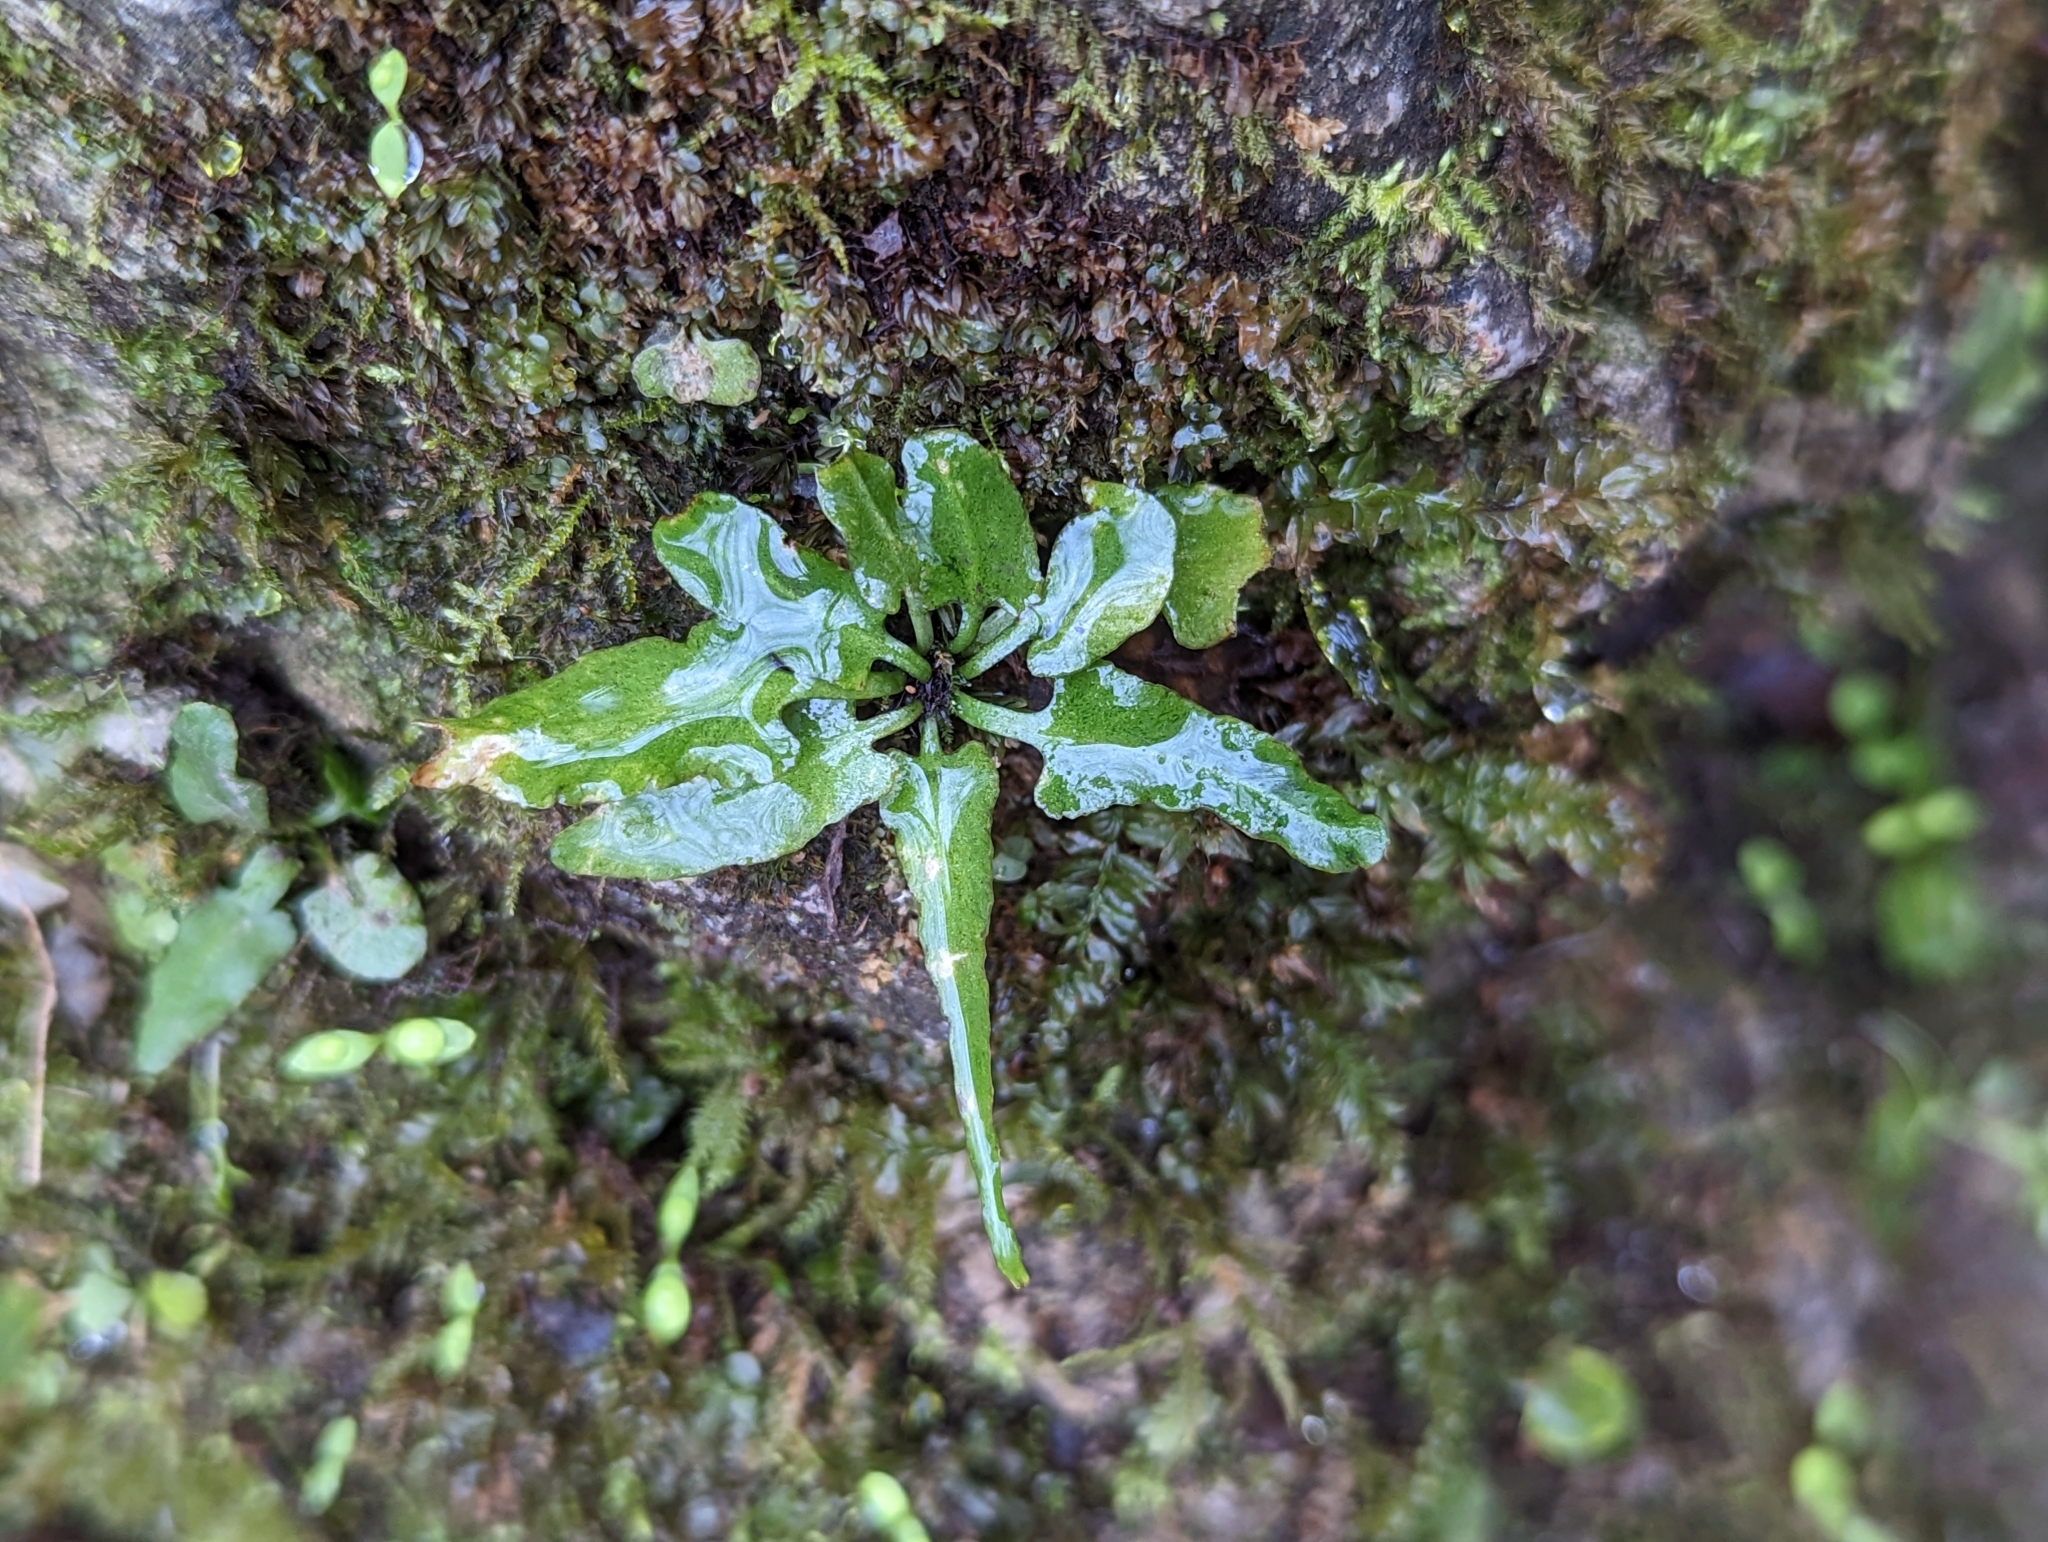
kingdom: Plantae
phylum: Tracheophyta
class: Polypodiopsida
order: Polypodiales
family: Aspleniaceae
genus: Asplenium
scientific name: Asplenium rhizophyllum
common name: Walking fern
